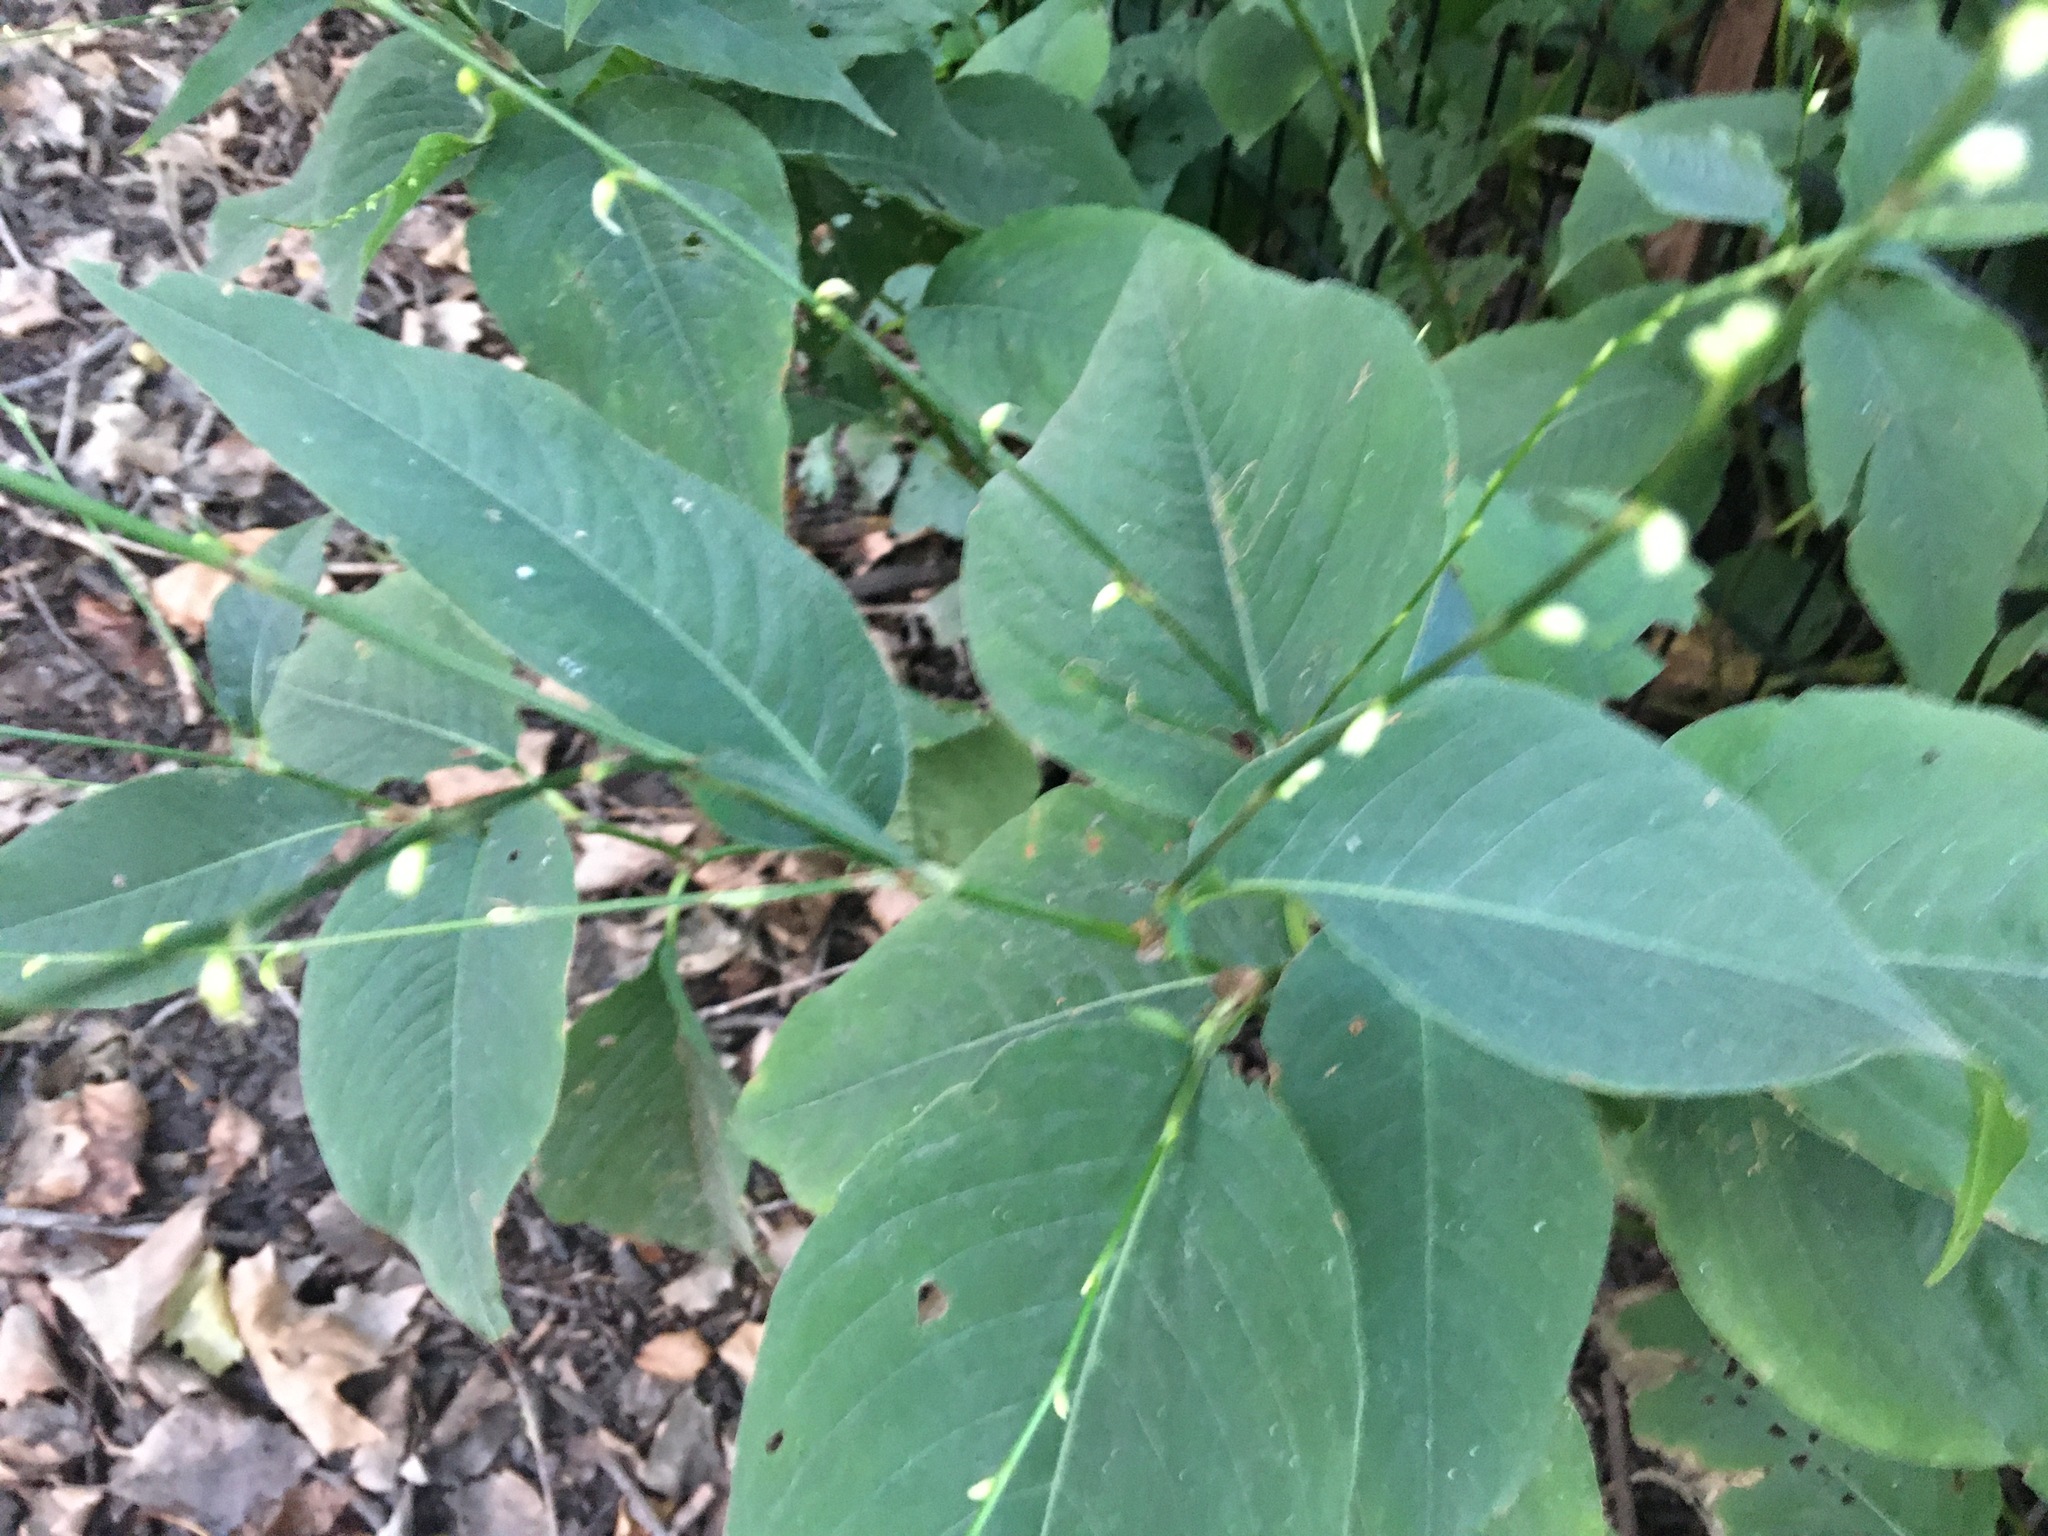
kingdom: Plantae
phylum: Tracheophyta
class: Magnoliopsida
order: Caryophyllales
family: Polygonaceae
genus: Persicaria
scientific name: Persicaria virginiana
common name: Jumpseed
